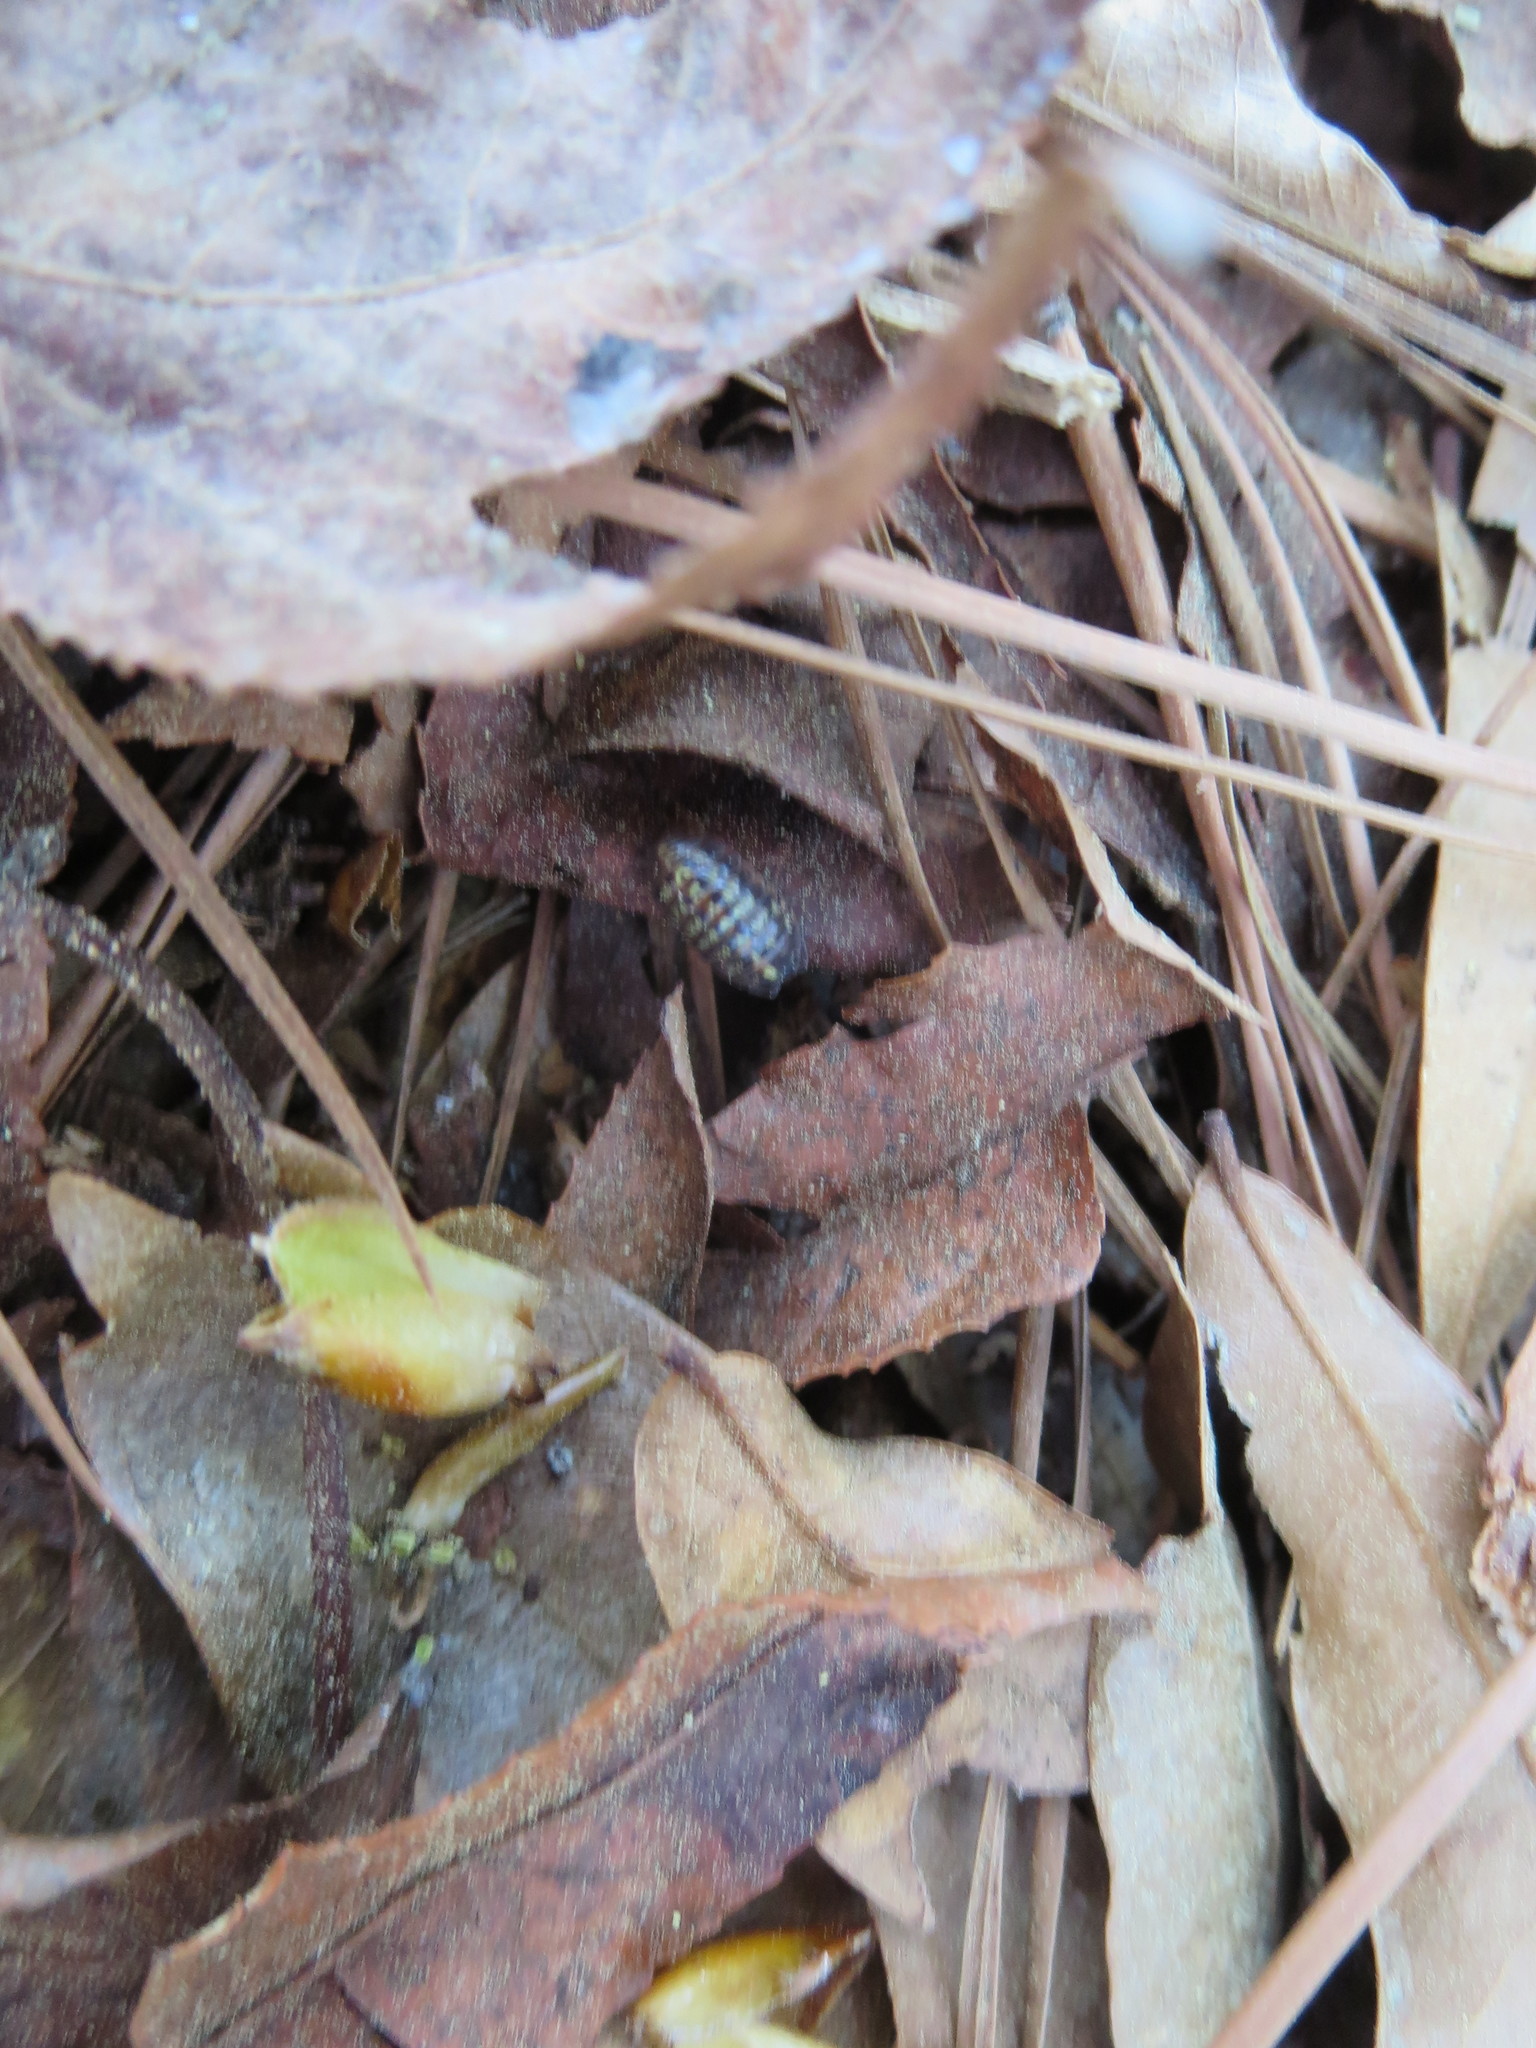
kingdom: Animalia
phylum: Arthropoda
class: Malacostraca
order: Isopoda
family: Armadillidiidae
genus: Armadillidium
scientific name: Armadillidium vulgare
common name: Common pill woodlouse
